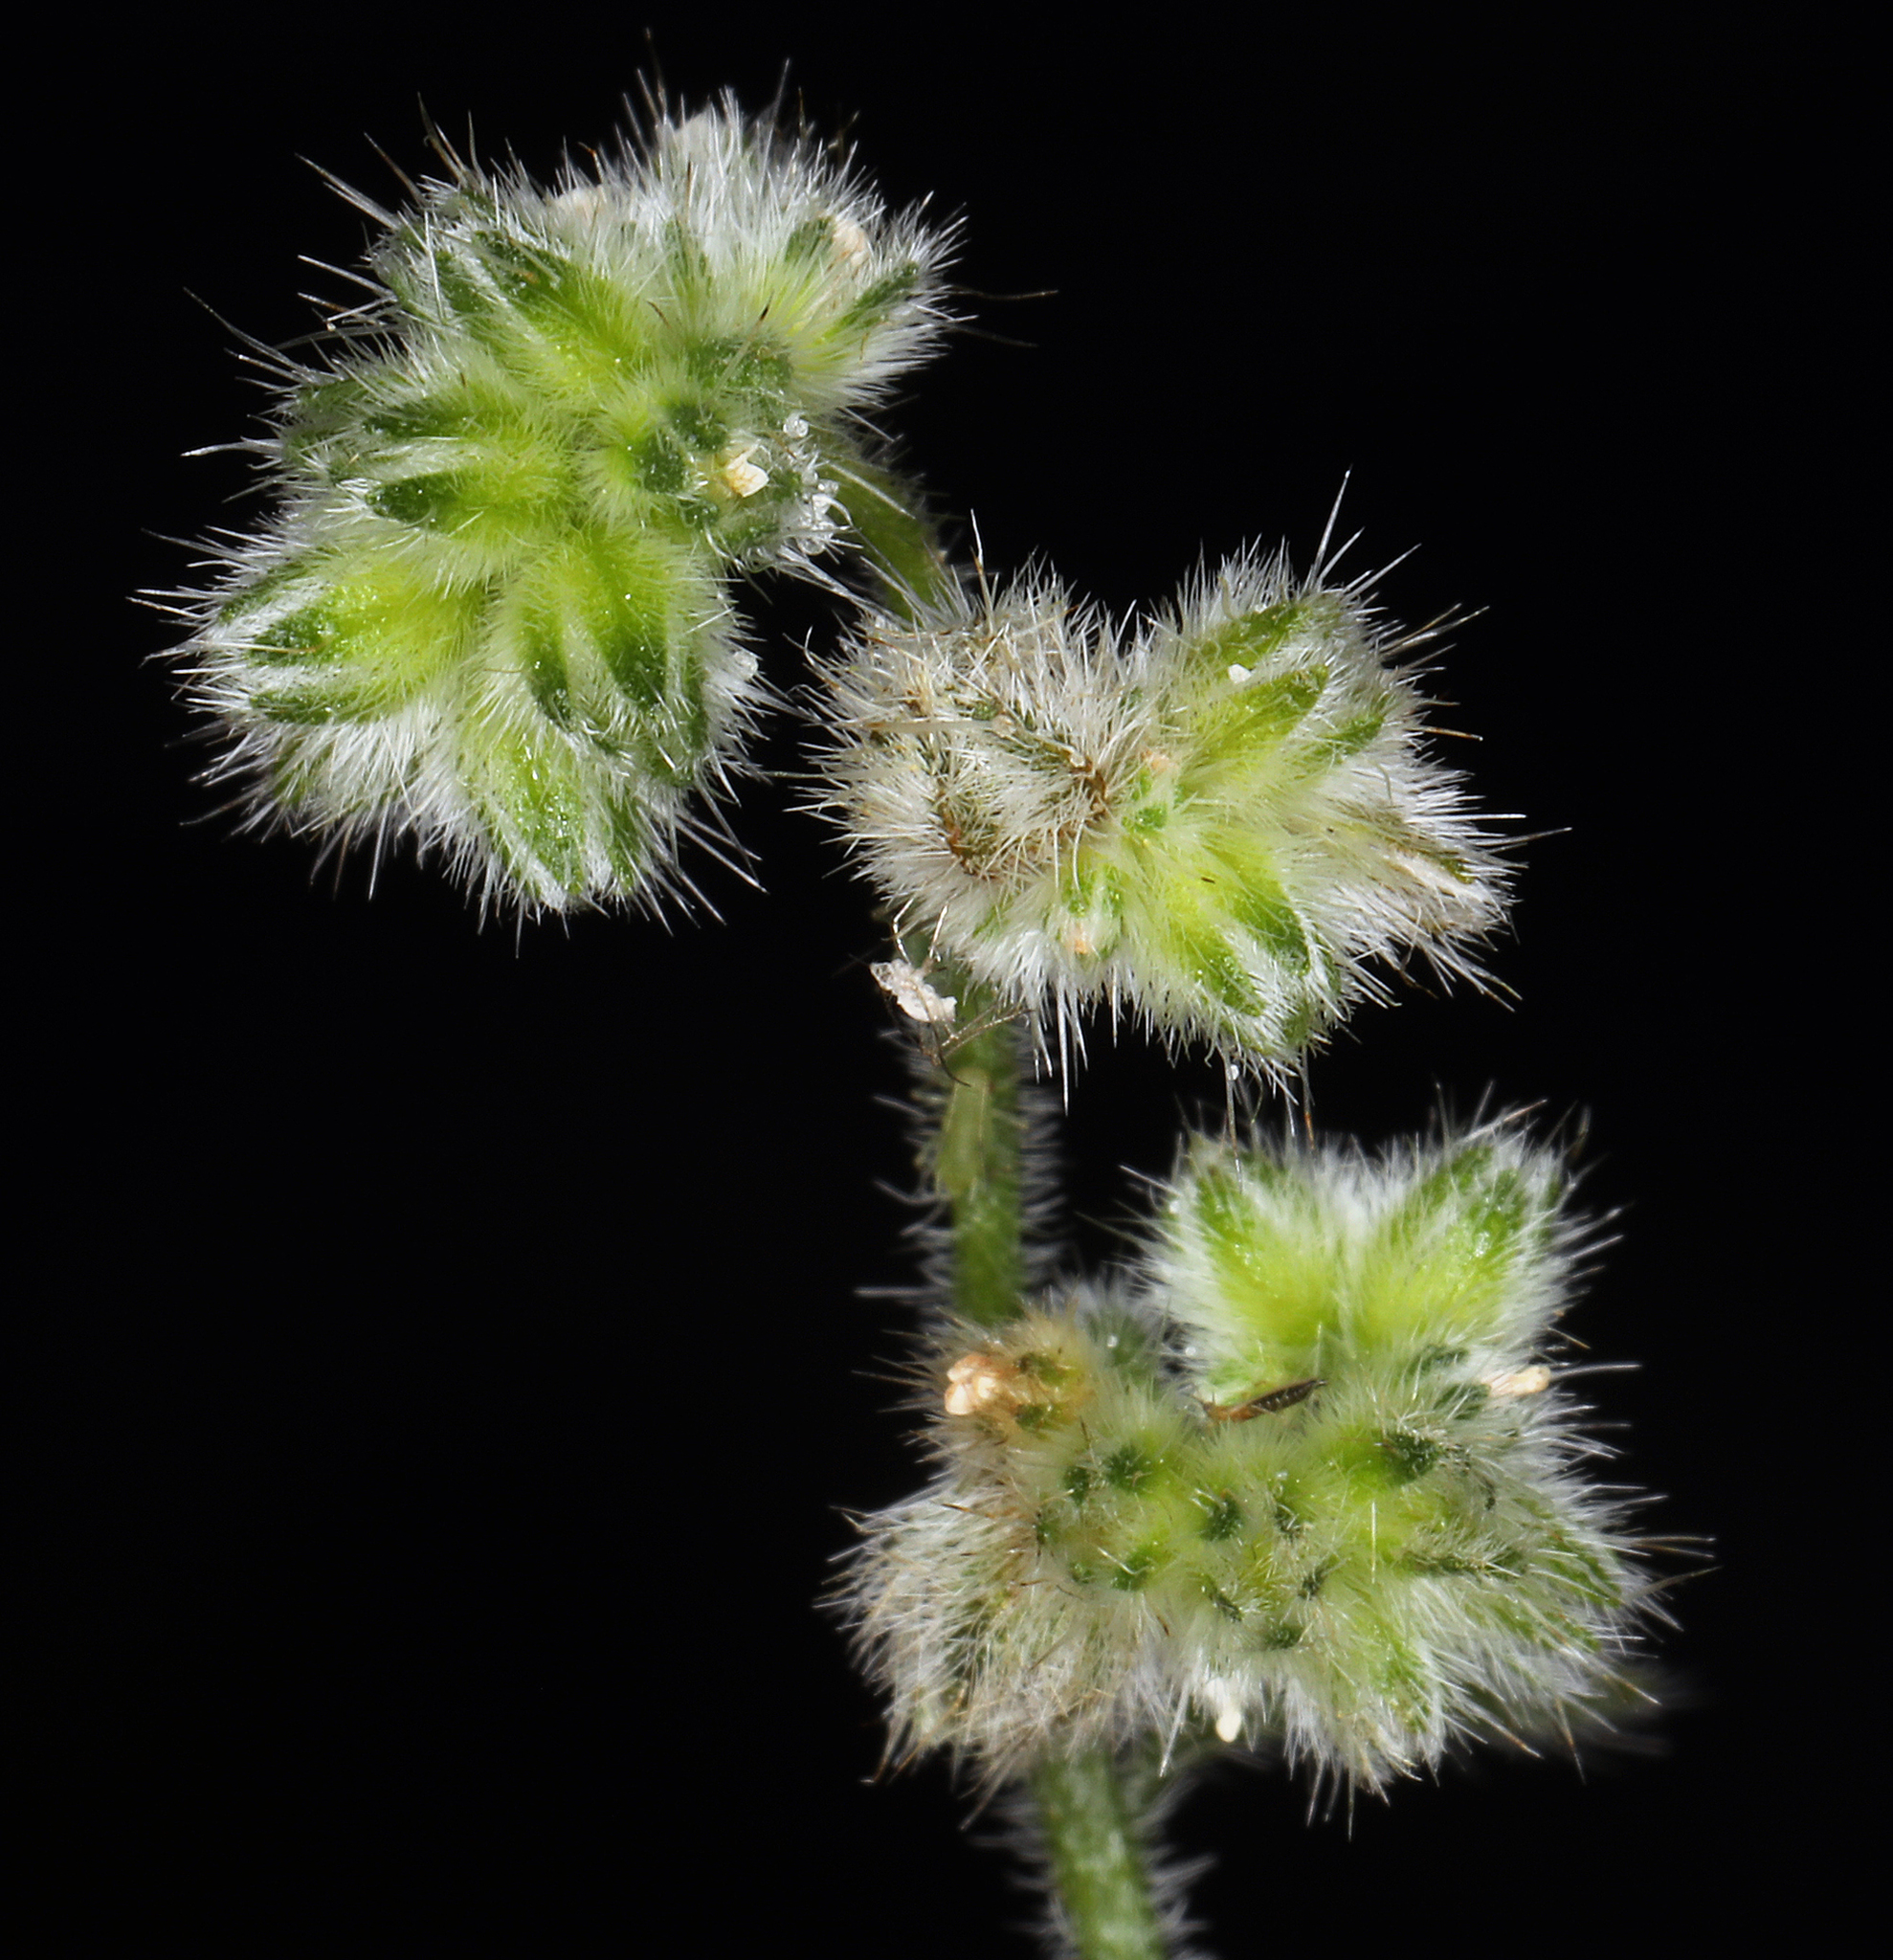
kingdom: Plantae
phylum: Tracheophyta
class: Magnoliopsida
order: Boraginales
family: Boraginaceae
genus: Cryptantha
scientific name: Cryptantha gracilis
